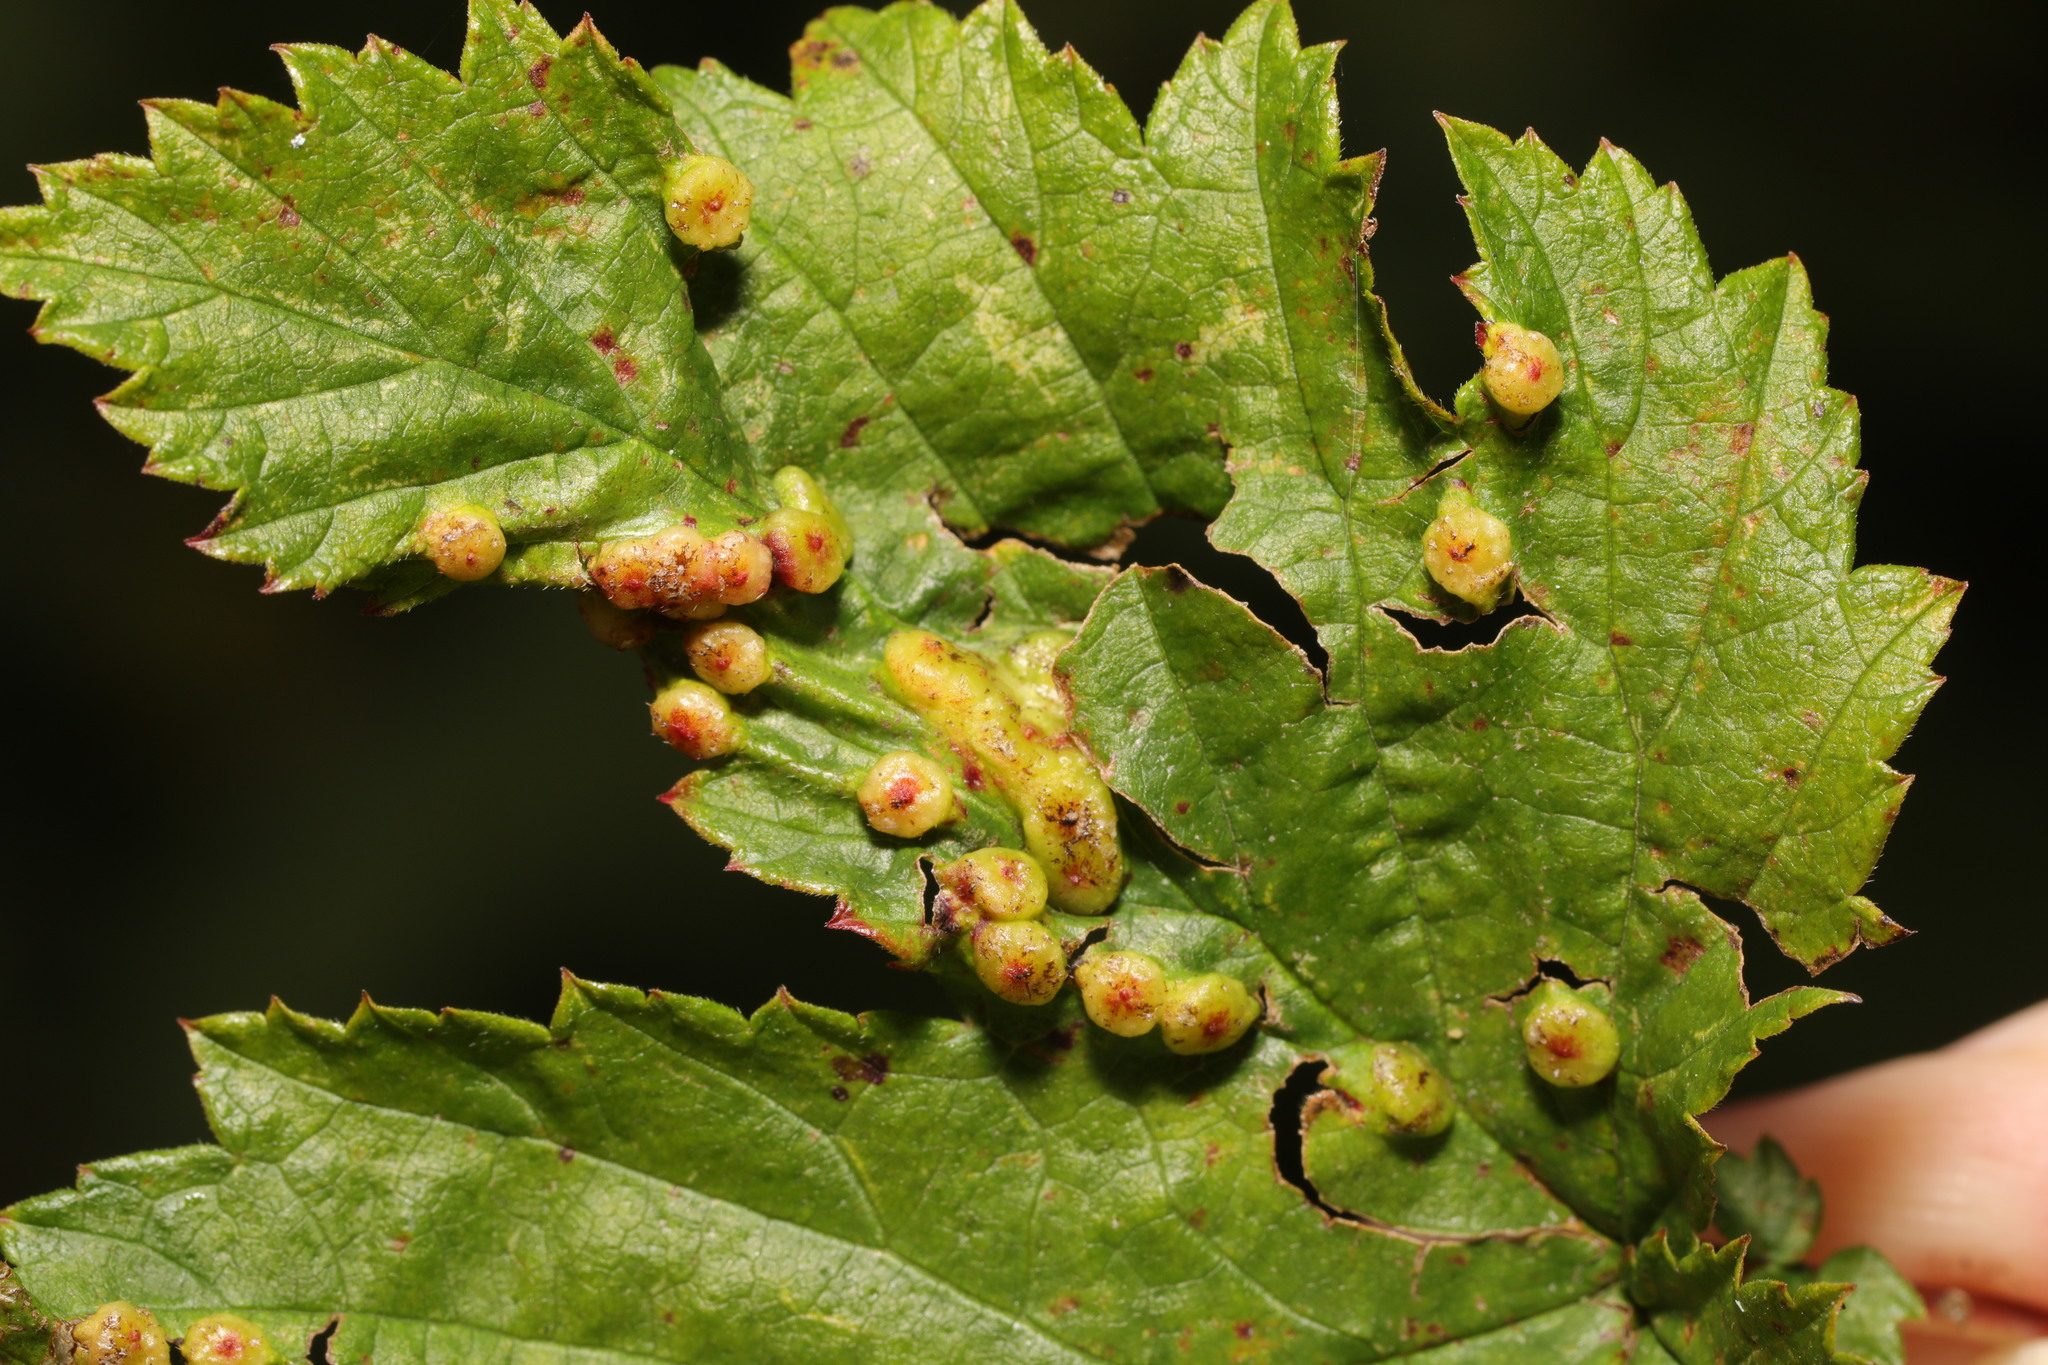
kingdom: Animalia
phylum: Arthropoda
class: Insecta
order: Diptera
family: Cecidomyiidae
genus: Dasineura
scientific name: Dasineura ulmaria
